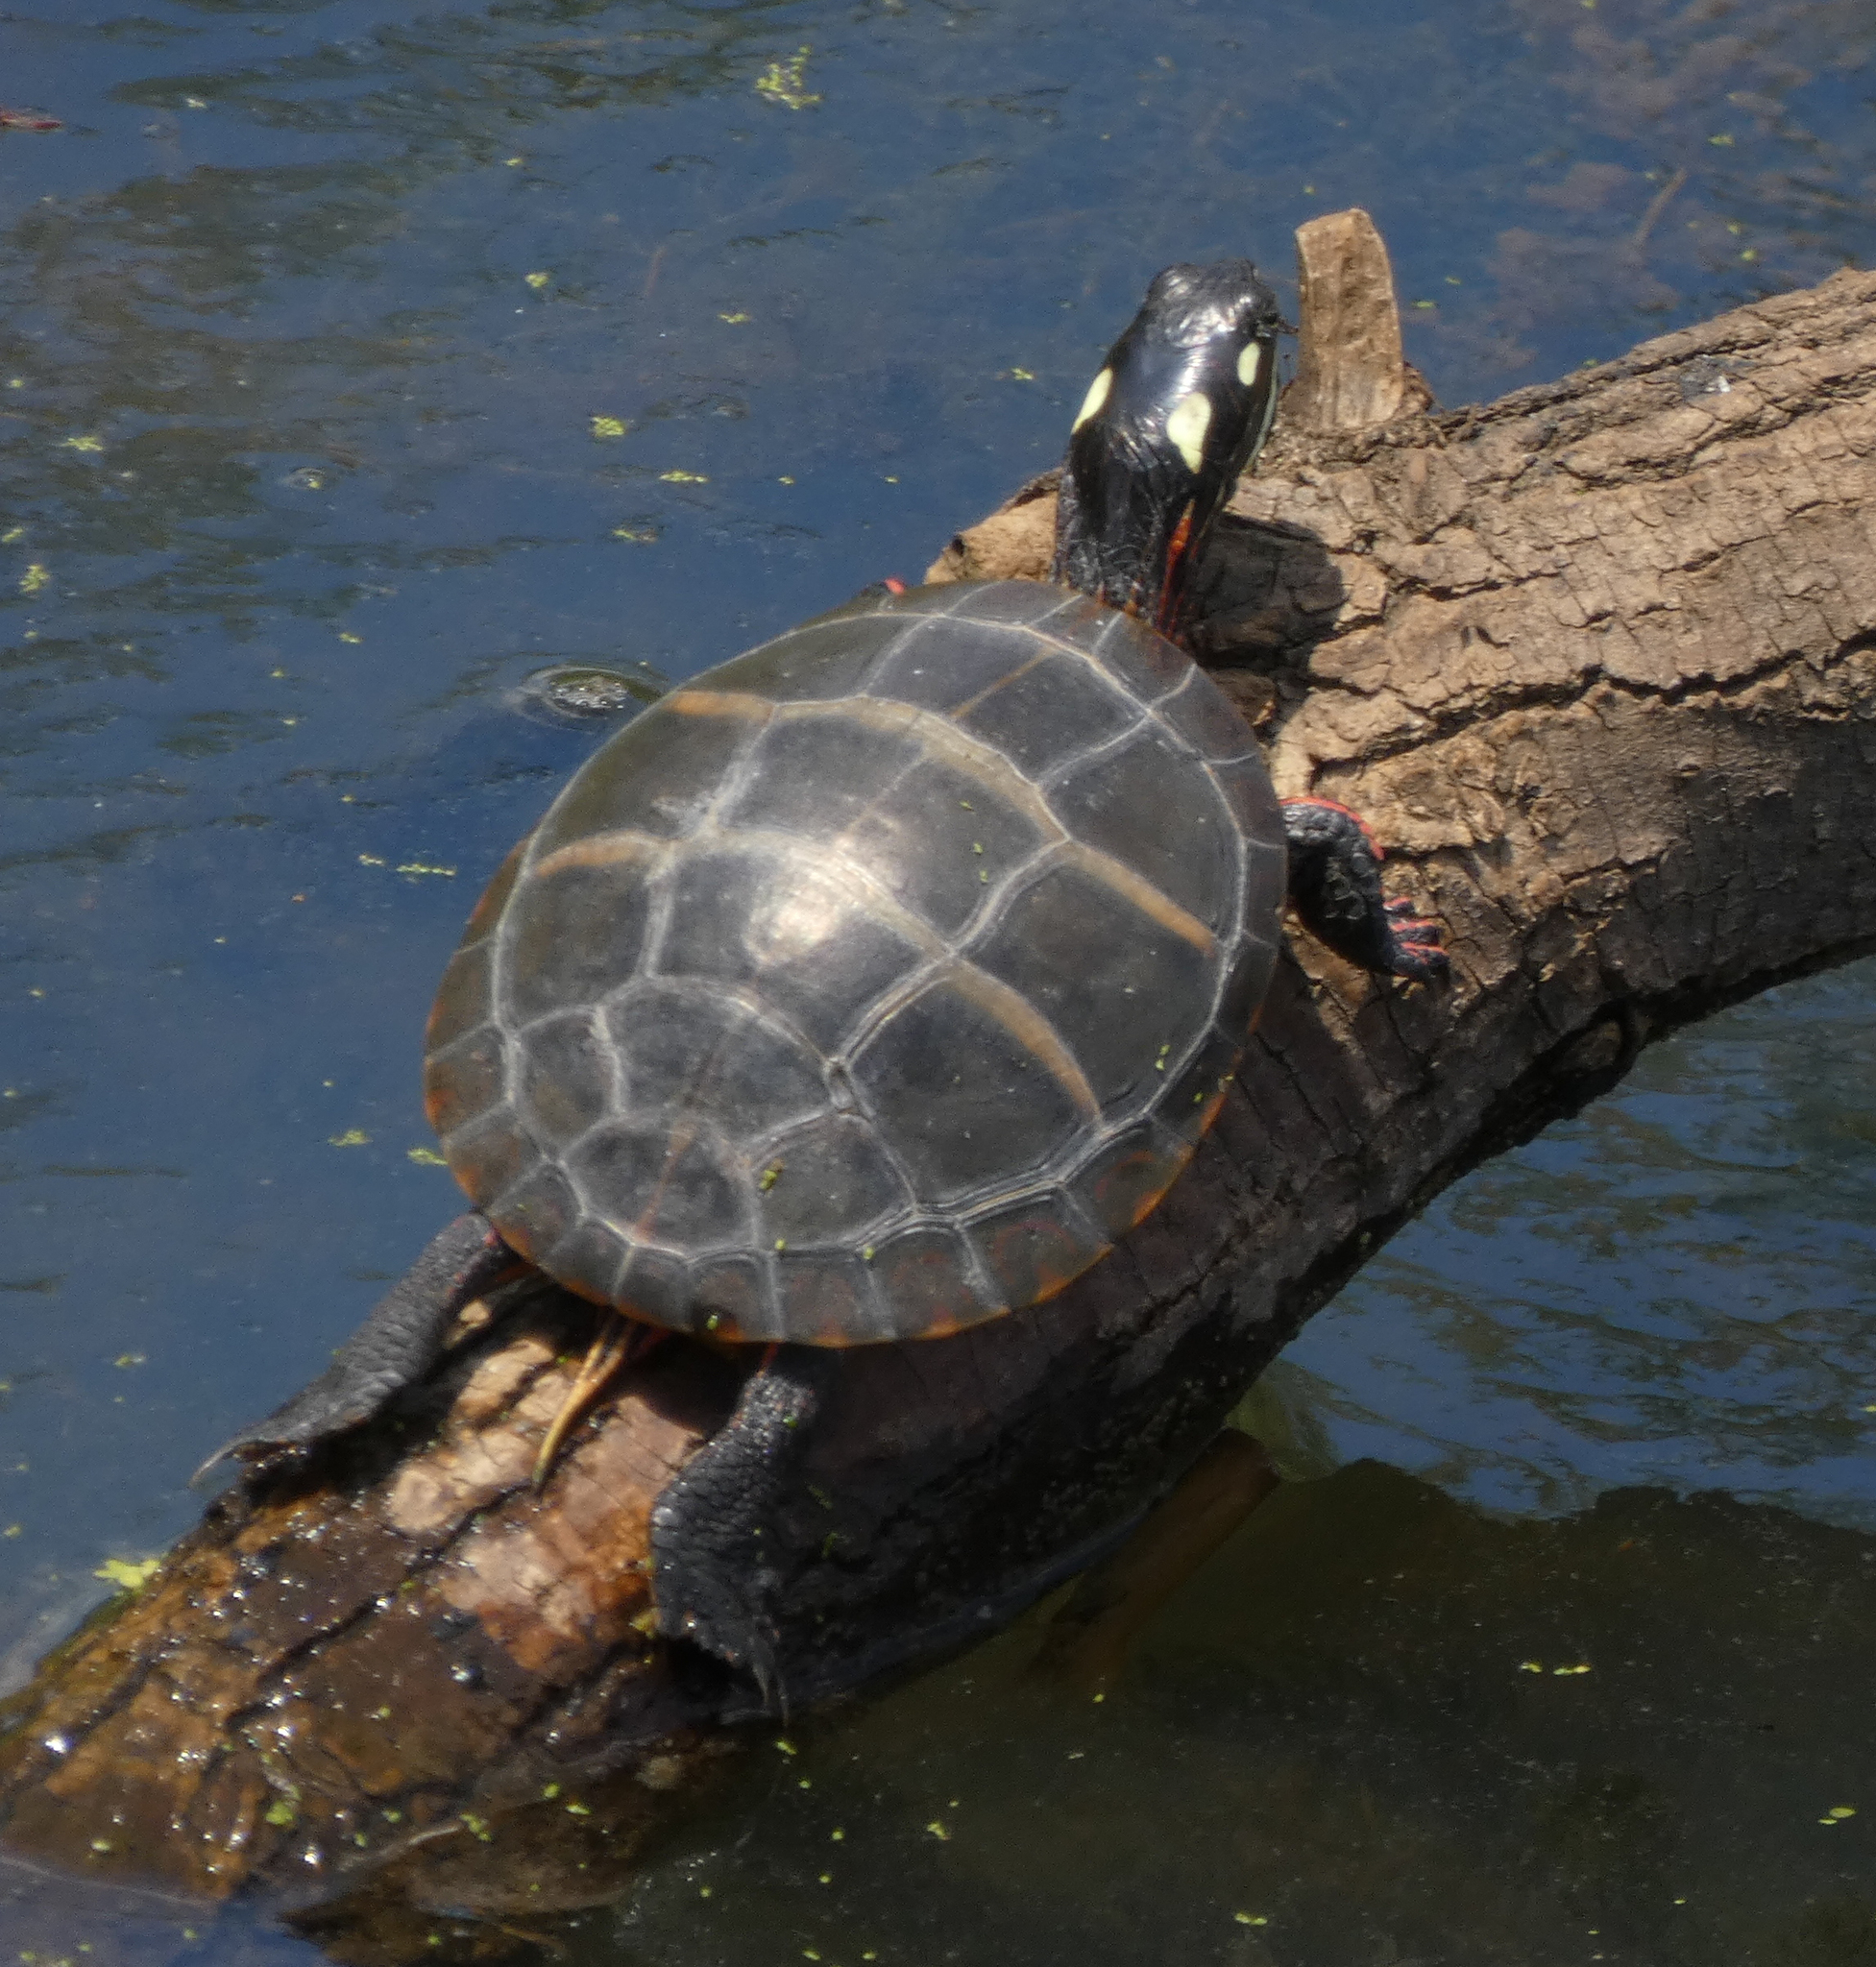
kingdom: Animalia
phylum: Chordata
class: Testudines
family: Emydidae
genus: Chrysemys
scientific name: Chrysemys picta
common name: Painted turtle
